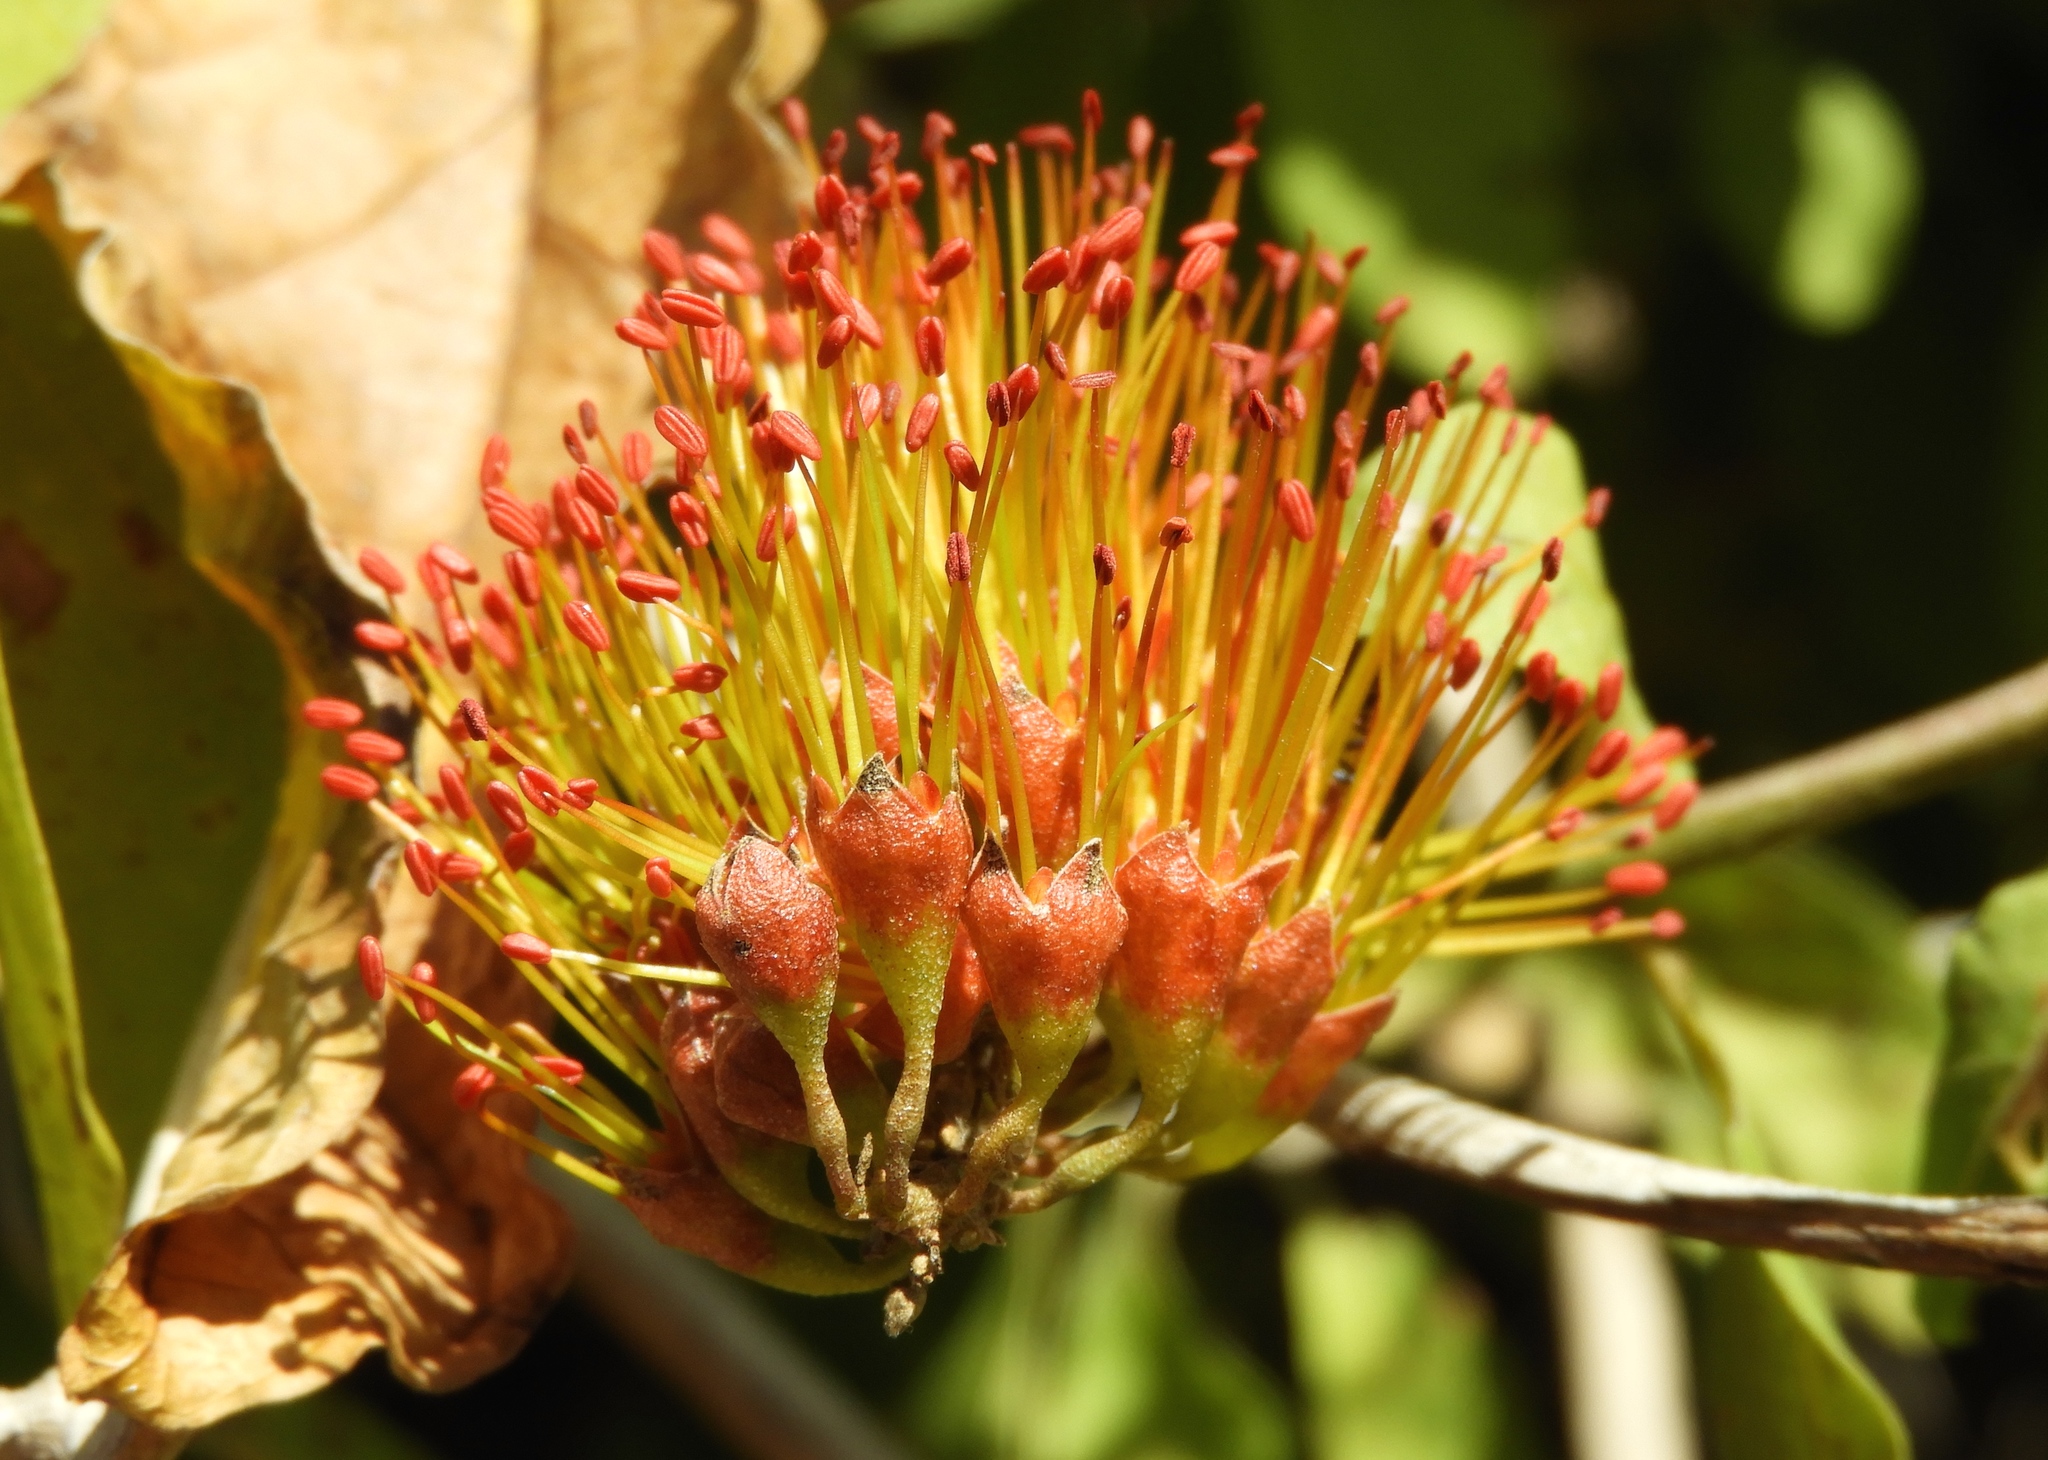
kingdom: Plantae
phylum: Tracheophyta
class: Magnoliopsida
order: Myrtales
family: Combretaceae
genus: Combretum
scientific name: Combretum farinosum
